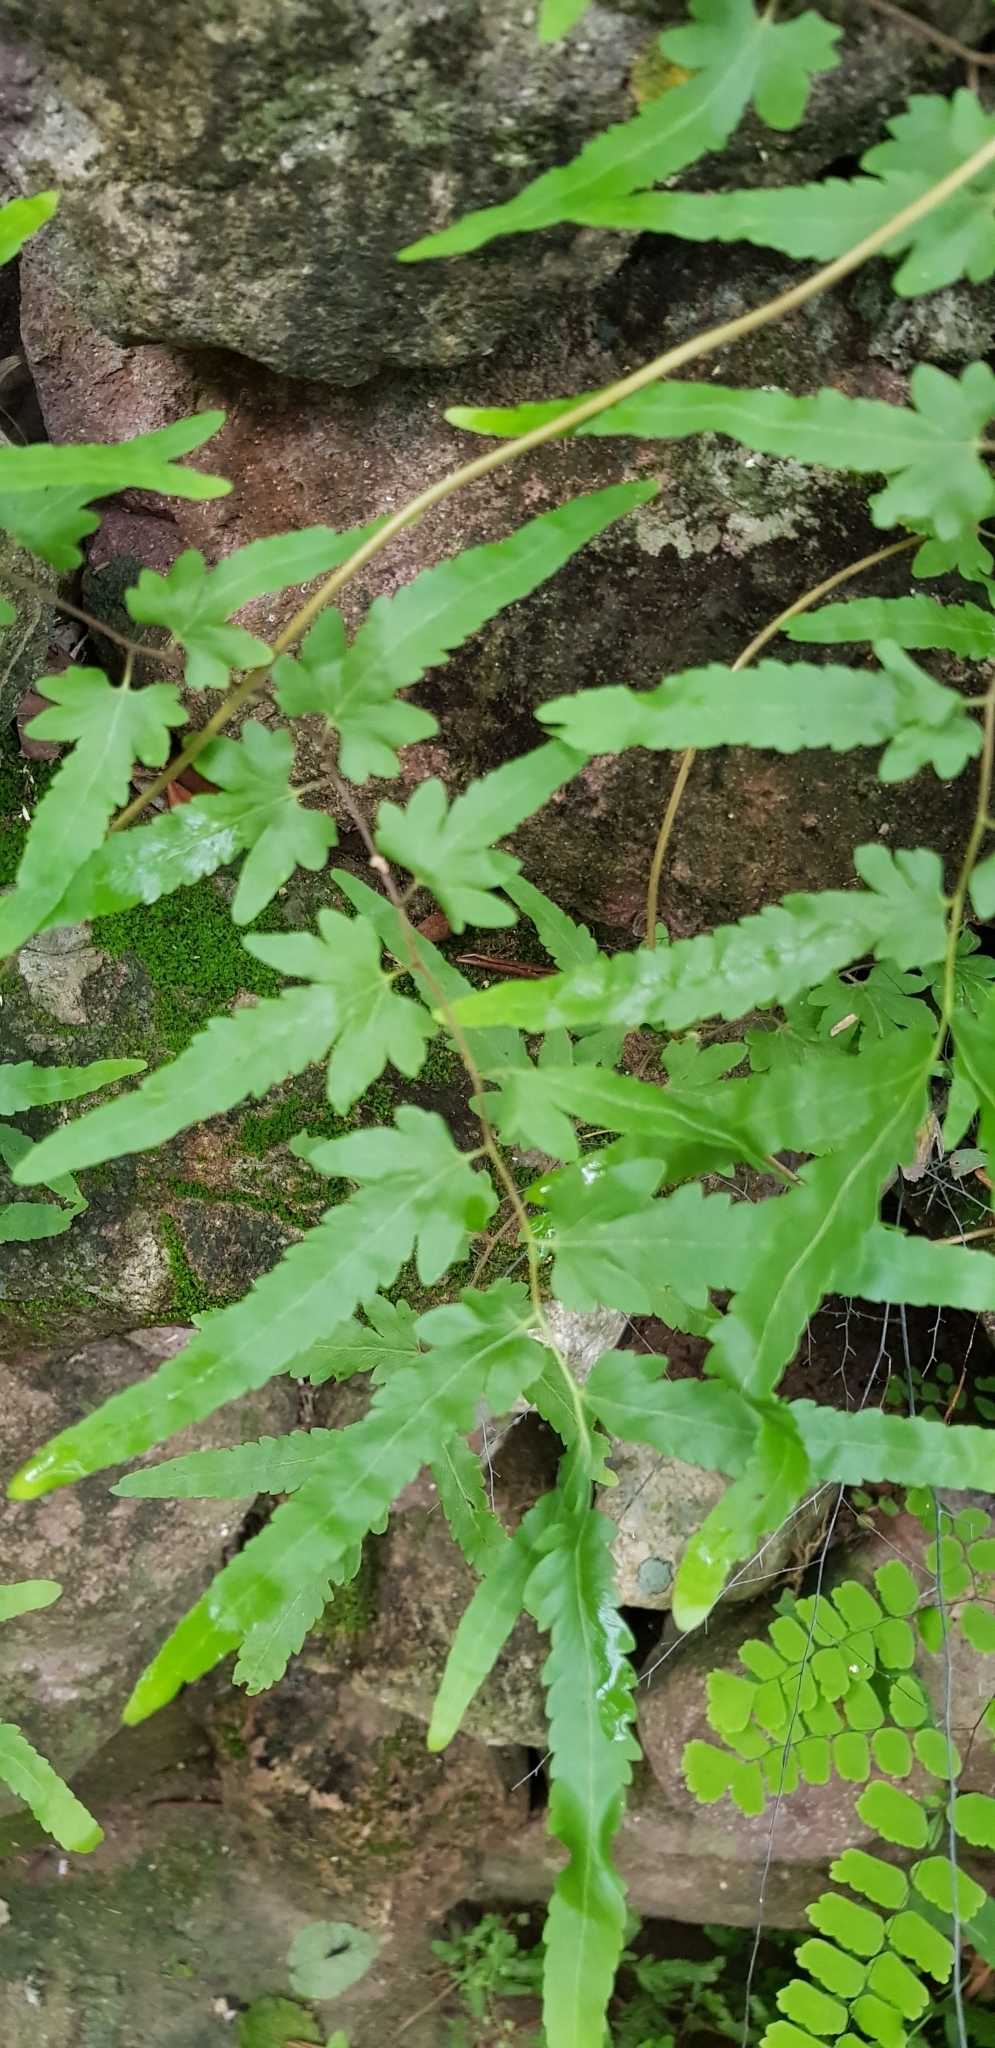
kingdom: Plantae
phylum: Tracheophyta
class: Polypodiopsida
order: Schizaeales
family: Lygodiaceae
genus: Lygodium
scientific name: Lygodium venustum
